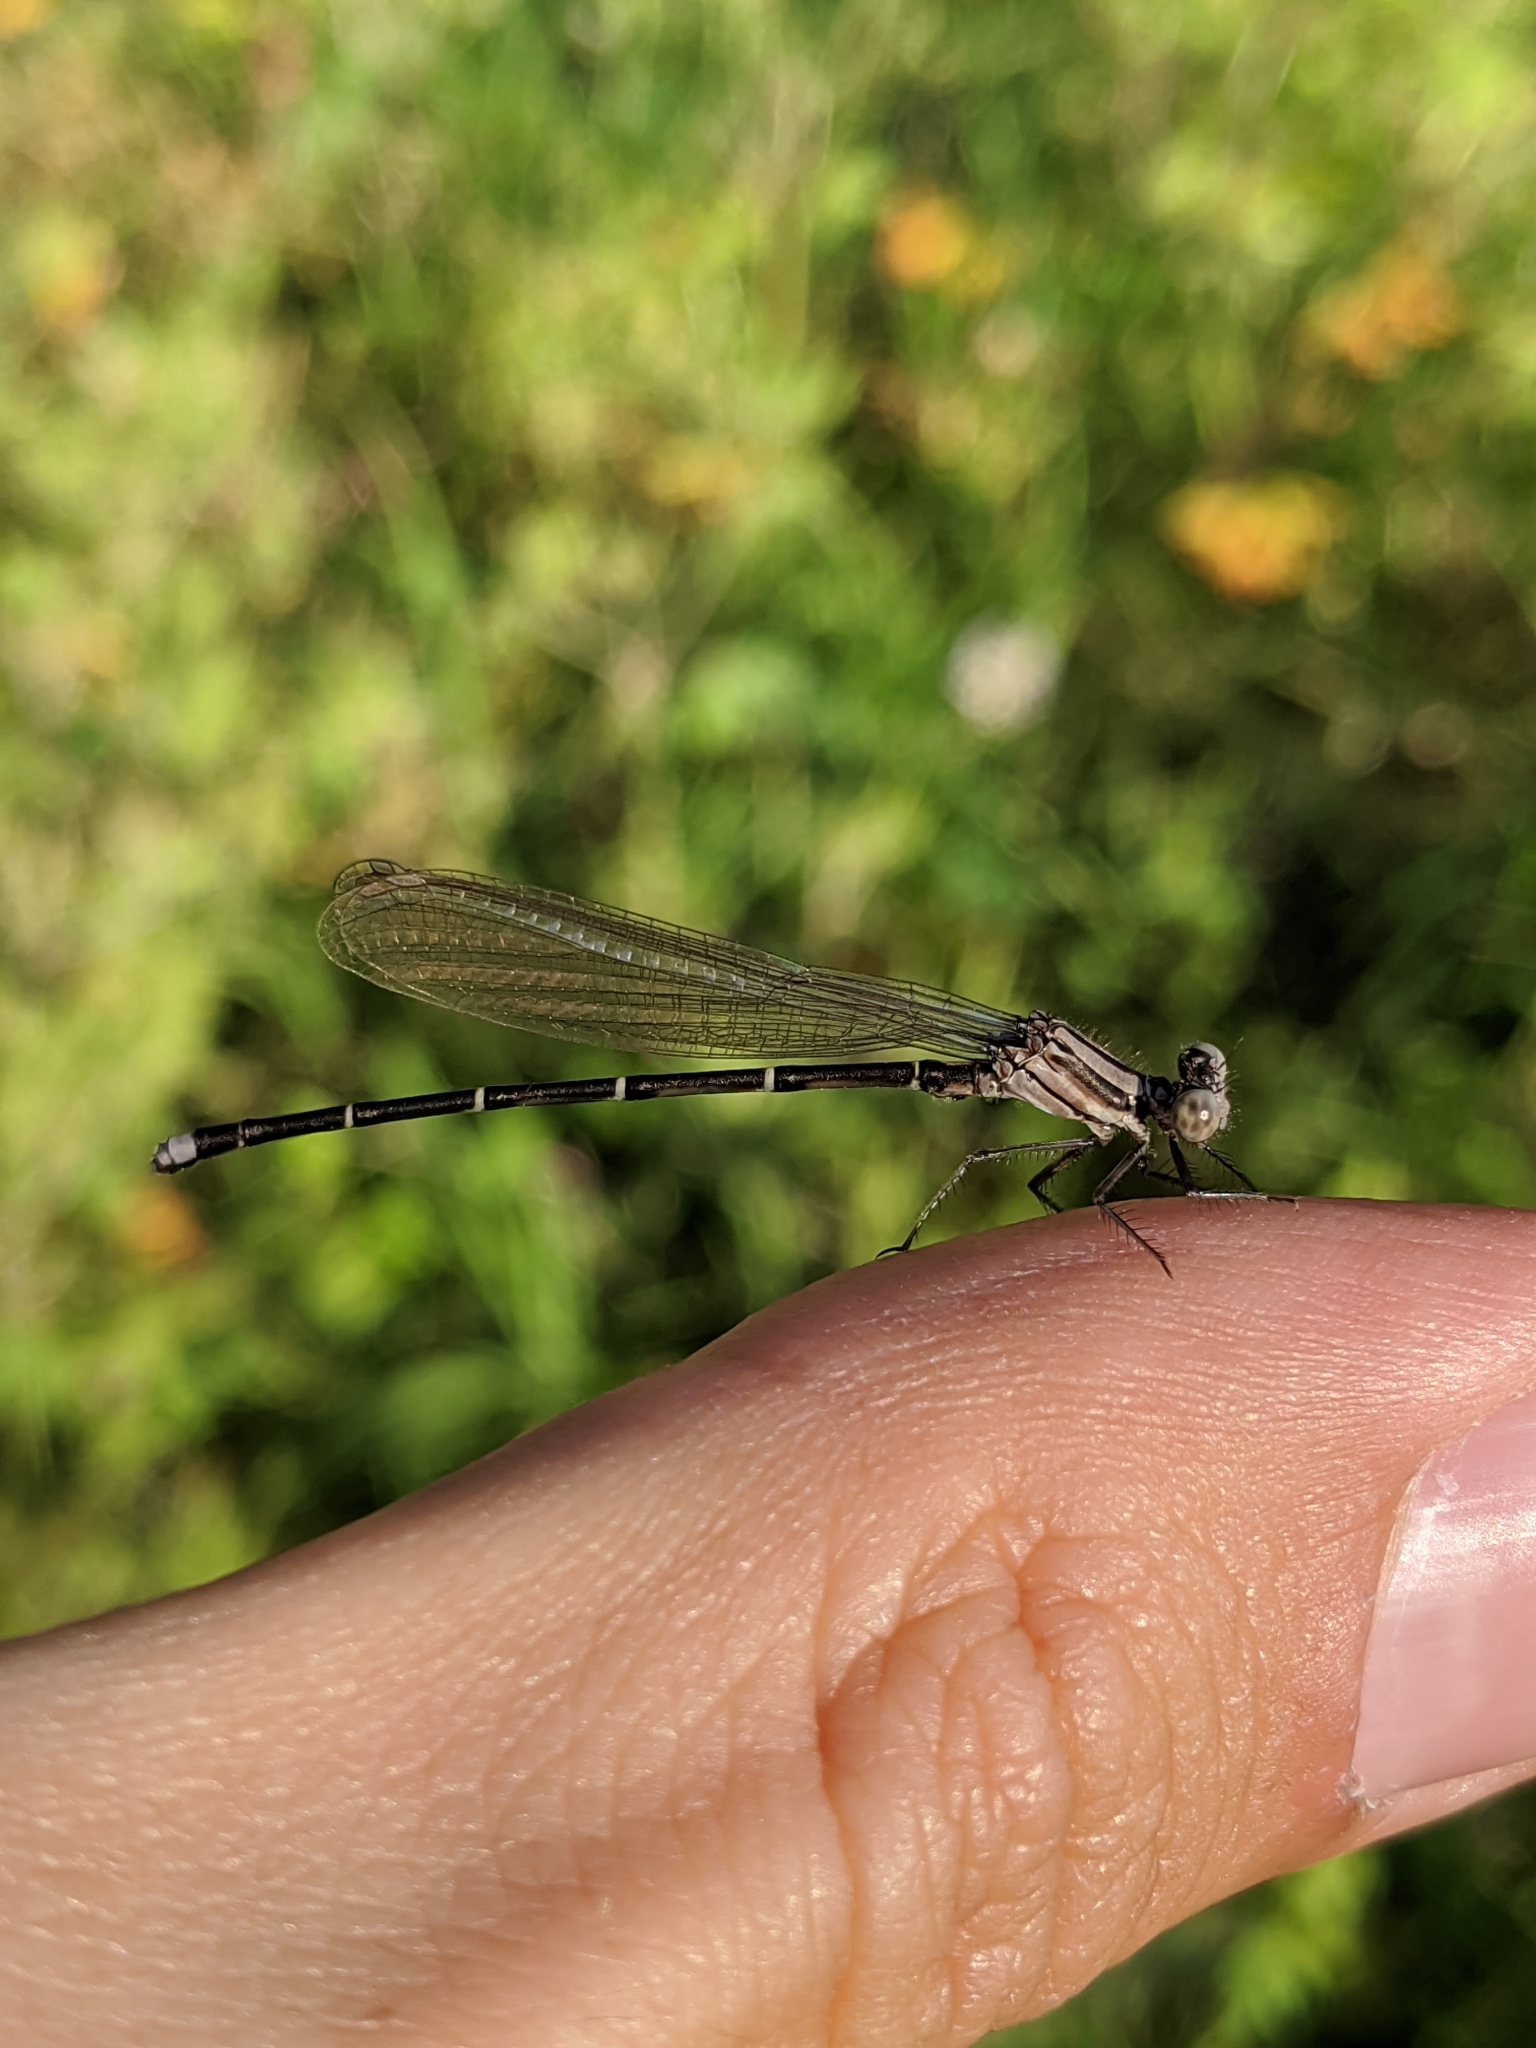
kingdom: Animalia
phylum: Arthropoda
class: Insecta
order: Odonata
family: Coenagrionidae
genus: Argia
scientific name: Argia tibialis
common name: Blue-tipped dancer
